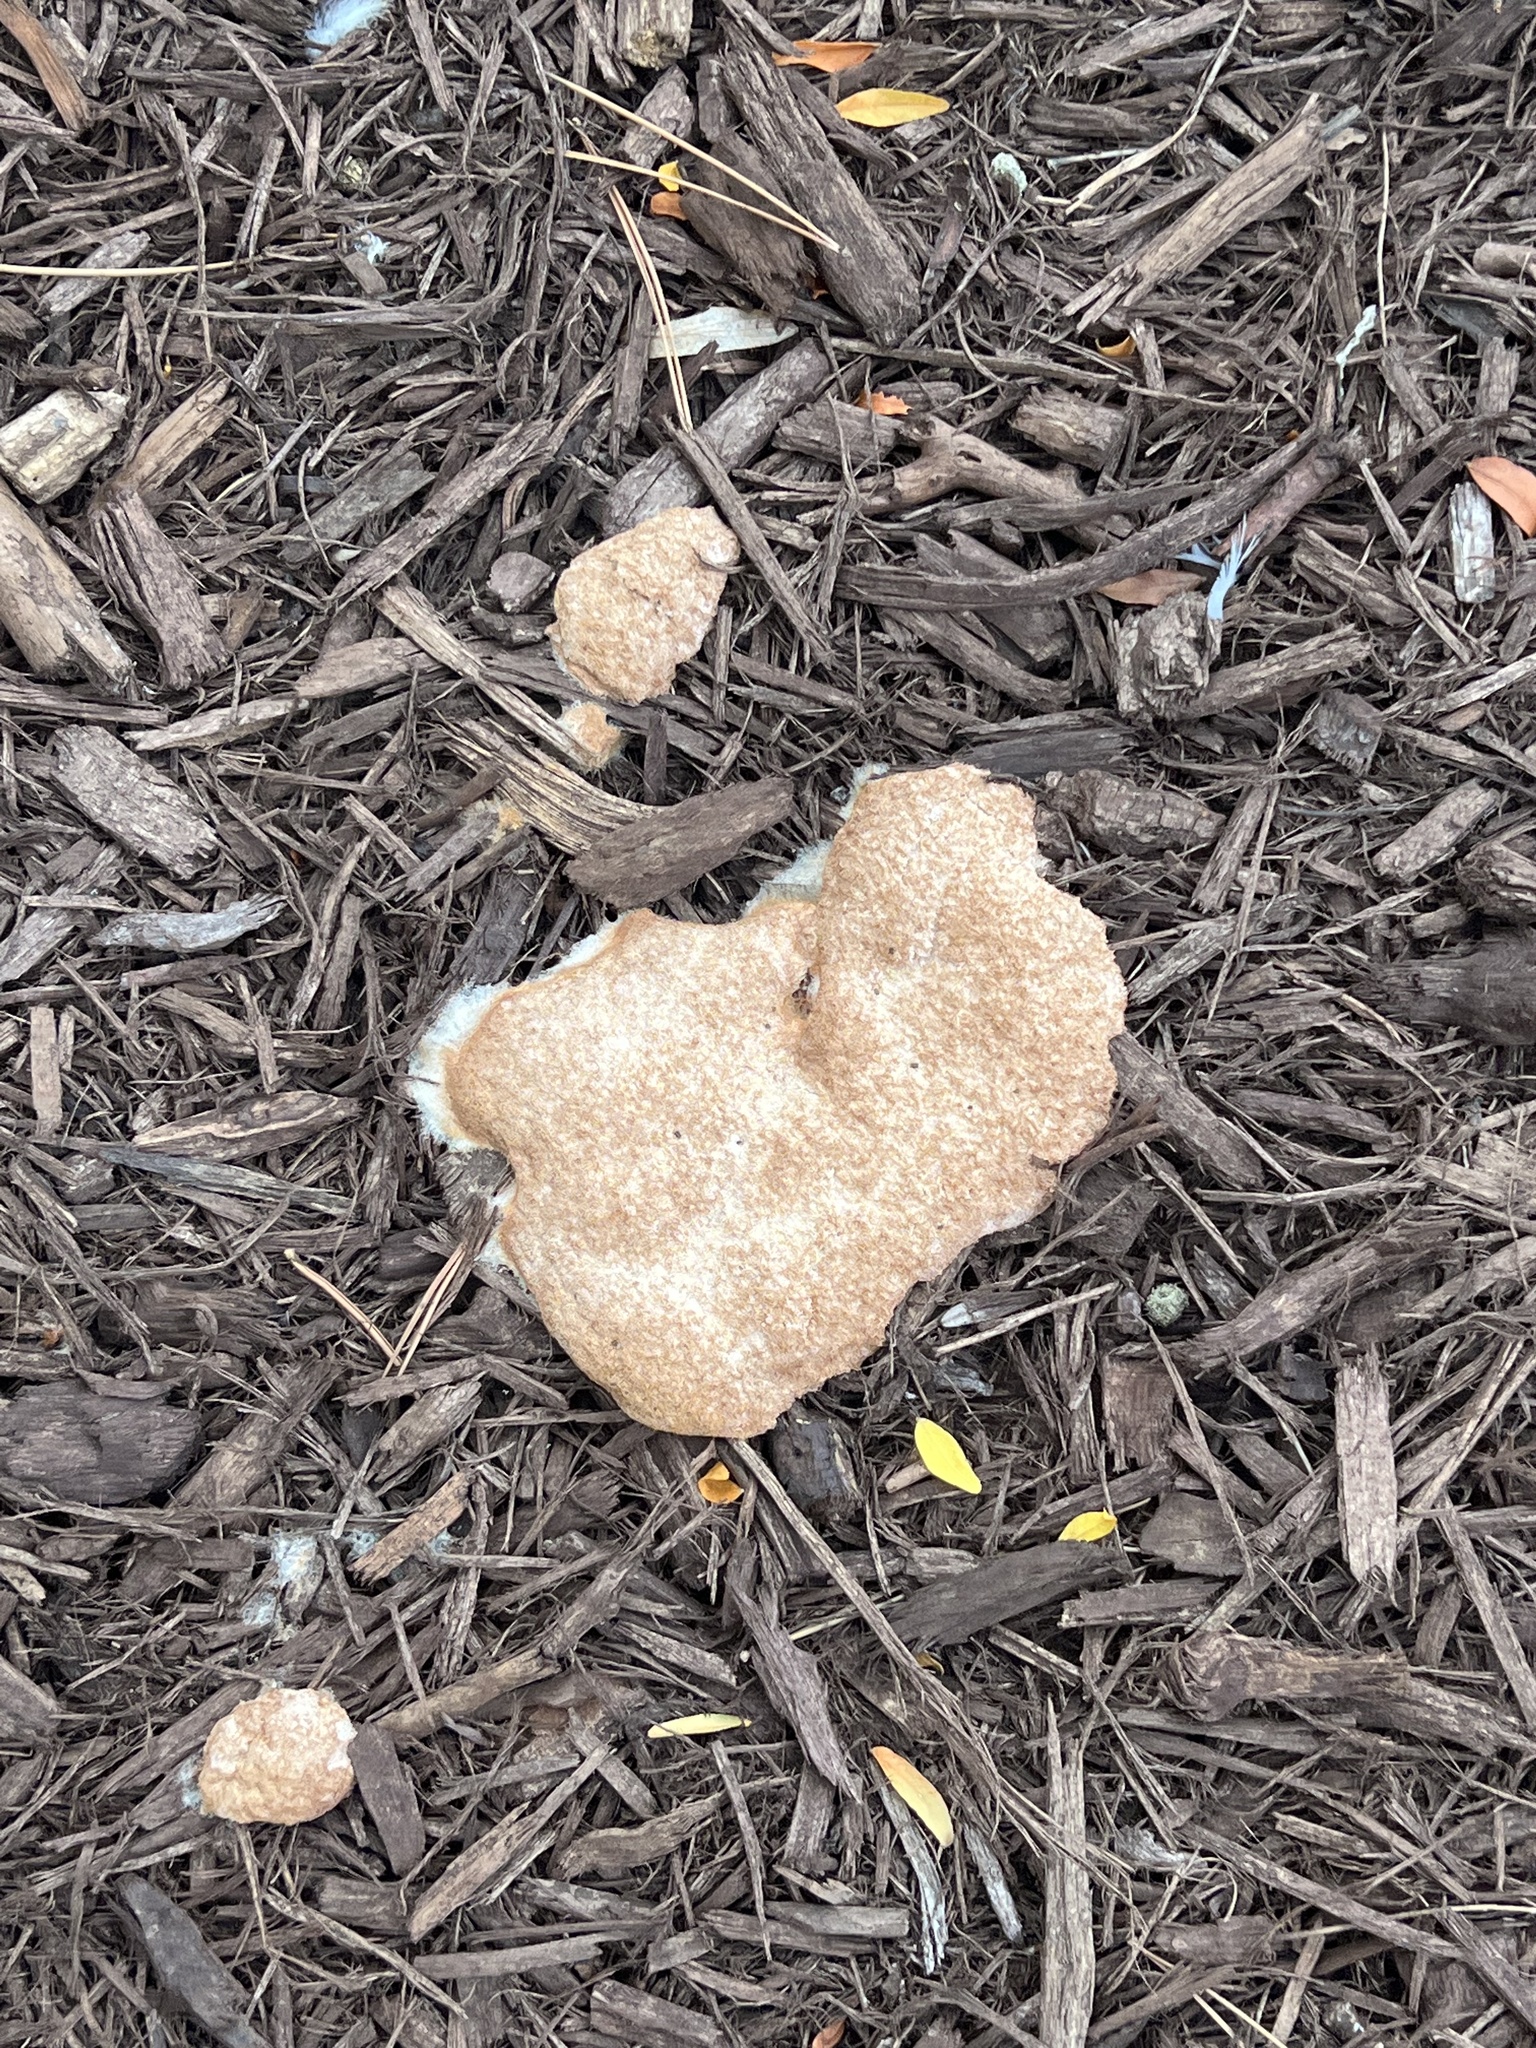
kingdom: Protozoa
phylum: Mycetozoa
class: Myxomycetes
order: Physarales
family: Physaraceae
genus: Fuligo
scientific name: Fuligo septica
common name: Dog vomit slime mold
